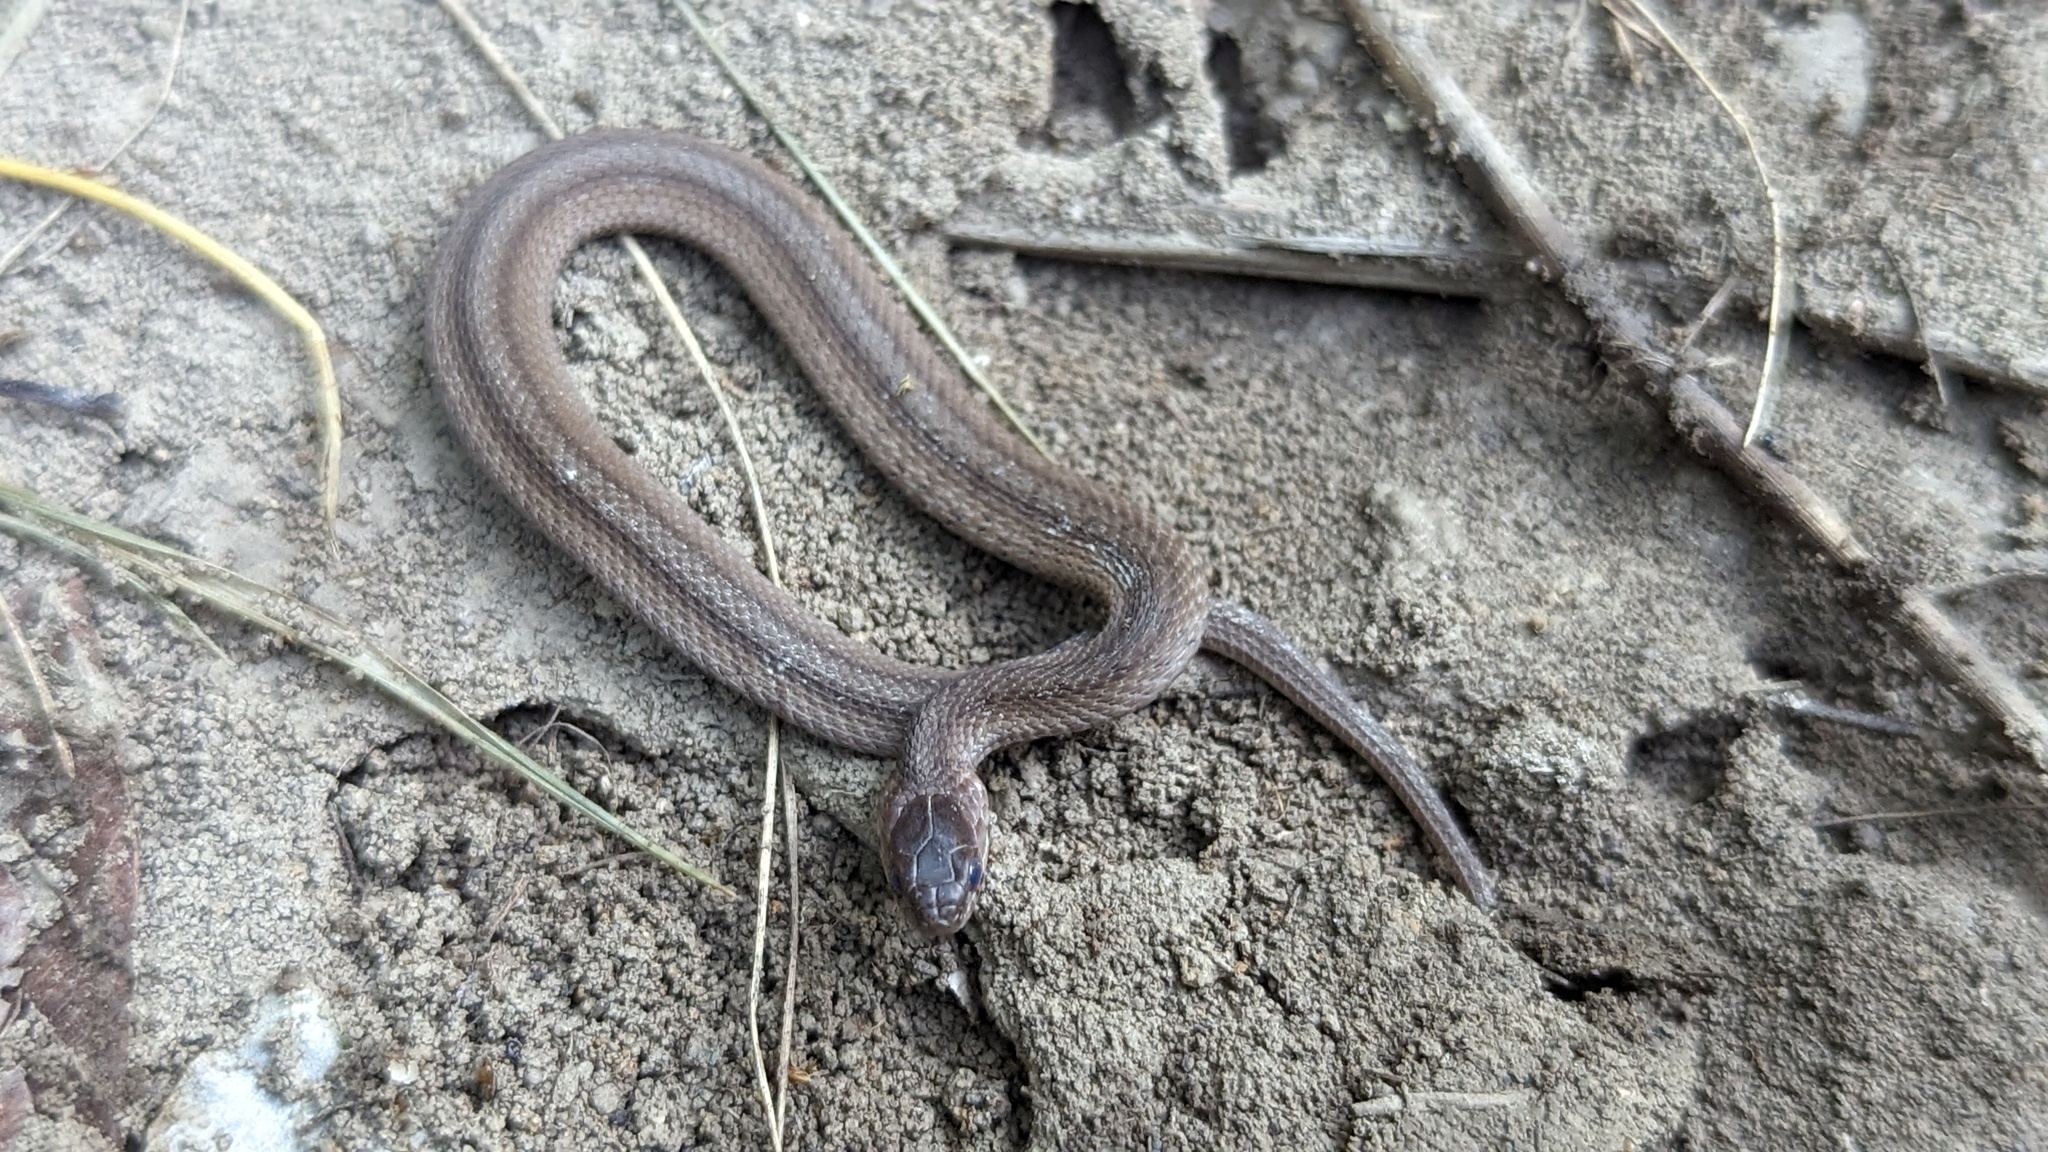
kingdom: Animalia
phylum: Chordata
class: Squamata
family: Colubridae
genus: Storeria
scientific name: Storeria dekayi
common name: (dekay’s) brown snake
